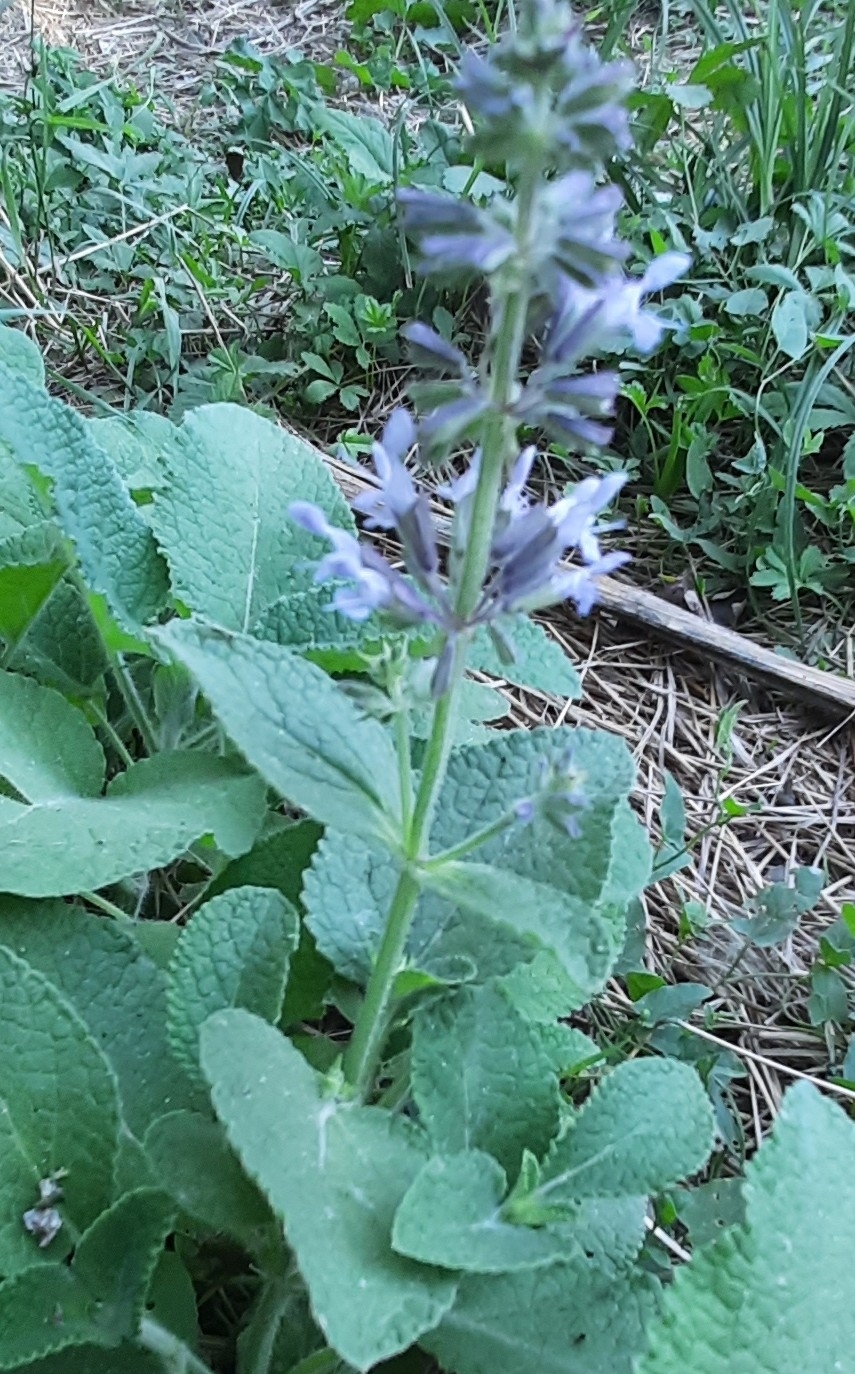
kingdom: Plantae
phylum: Tracheophyta
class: Magnoliopsida
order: Lamiales
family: Lamiaceae
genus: Salvia
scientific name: Salvia verticillata
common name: Whorled clary
